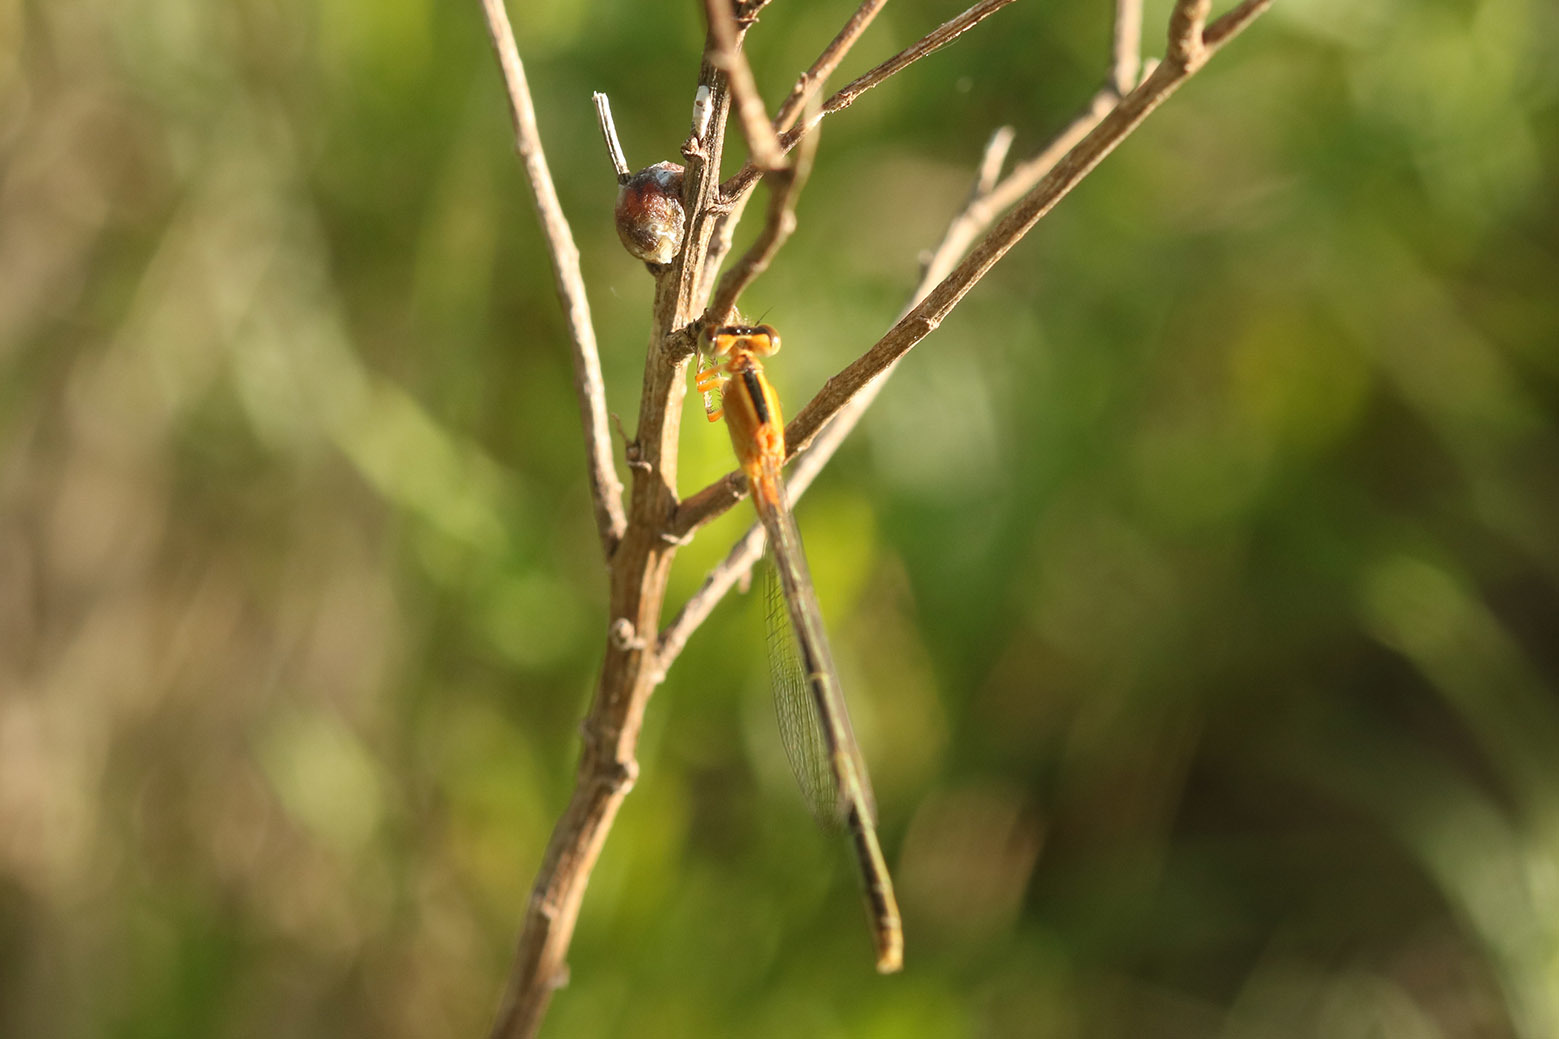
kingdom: Animalia
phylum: Arthropoda
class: Insecta
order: Odonata
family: Coenagrionidae
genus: Ischnura
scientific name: Ischnura fluviatilis
